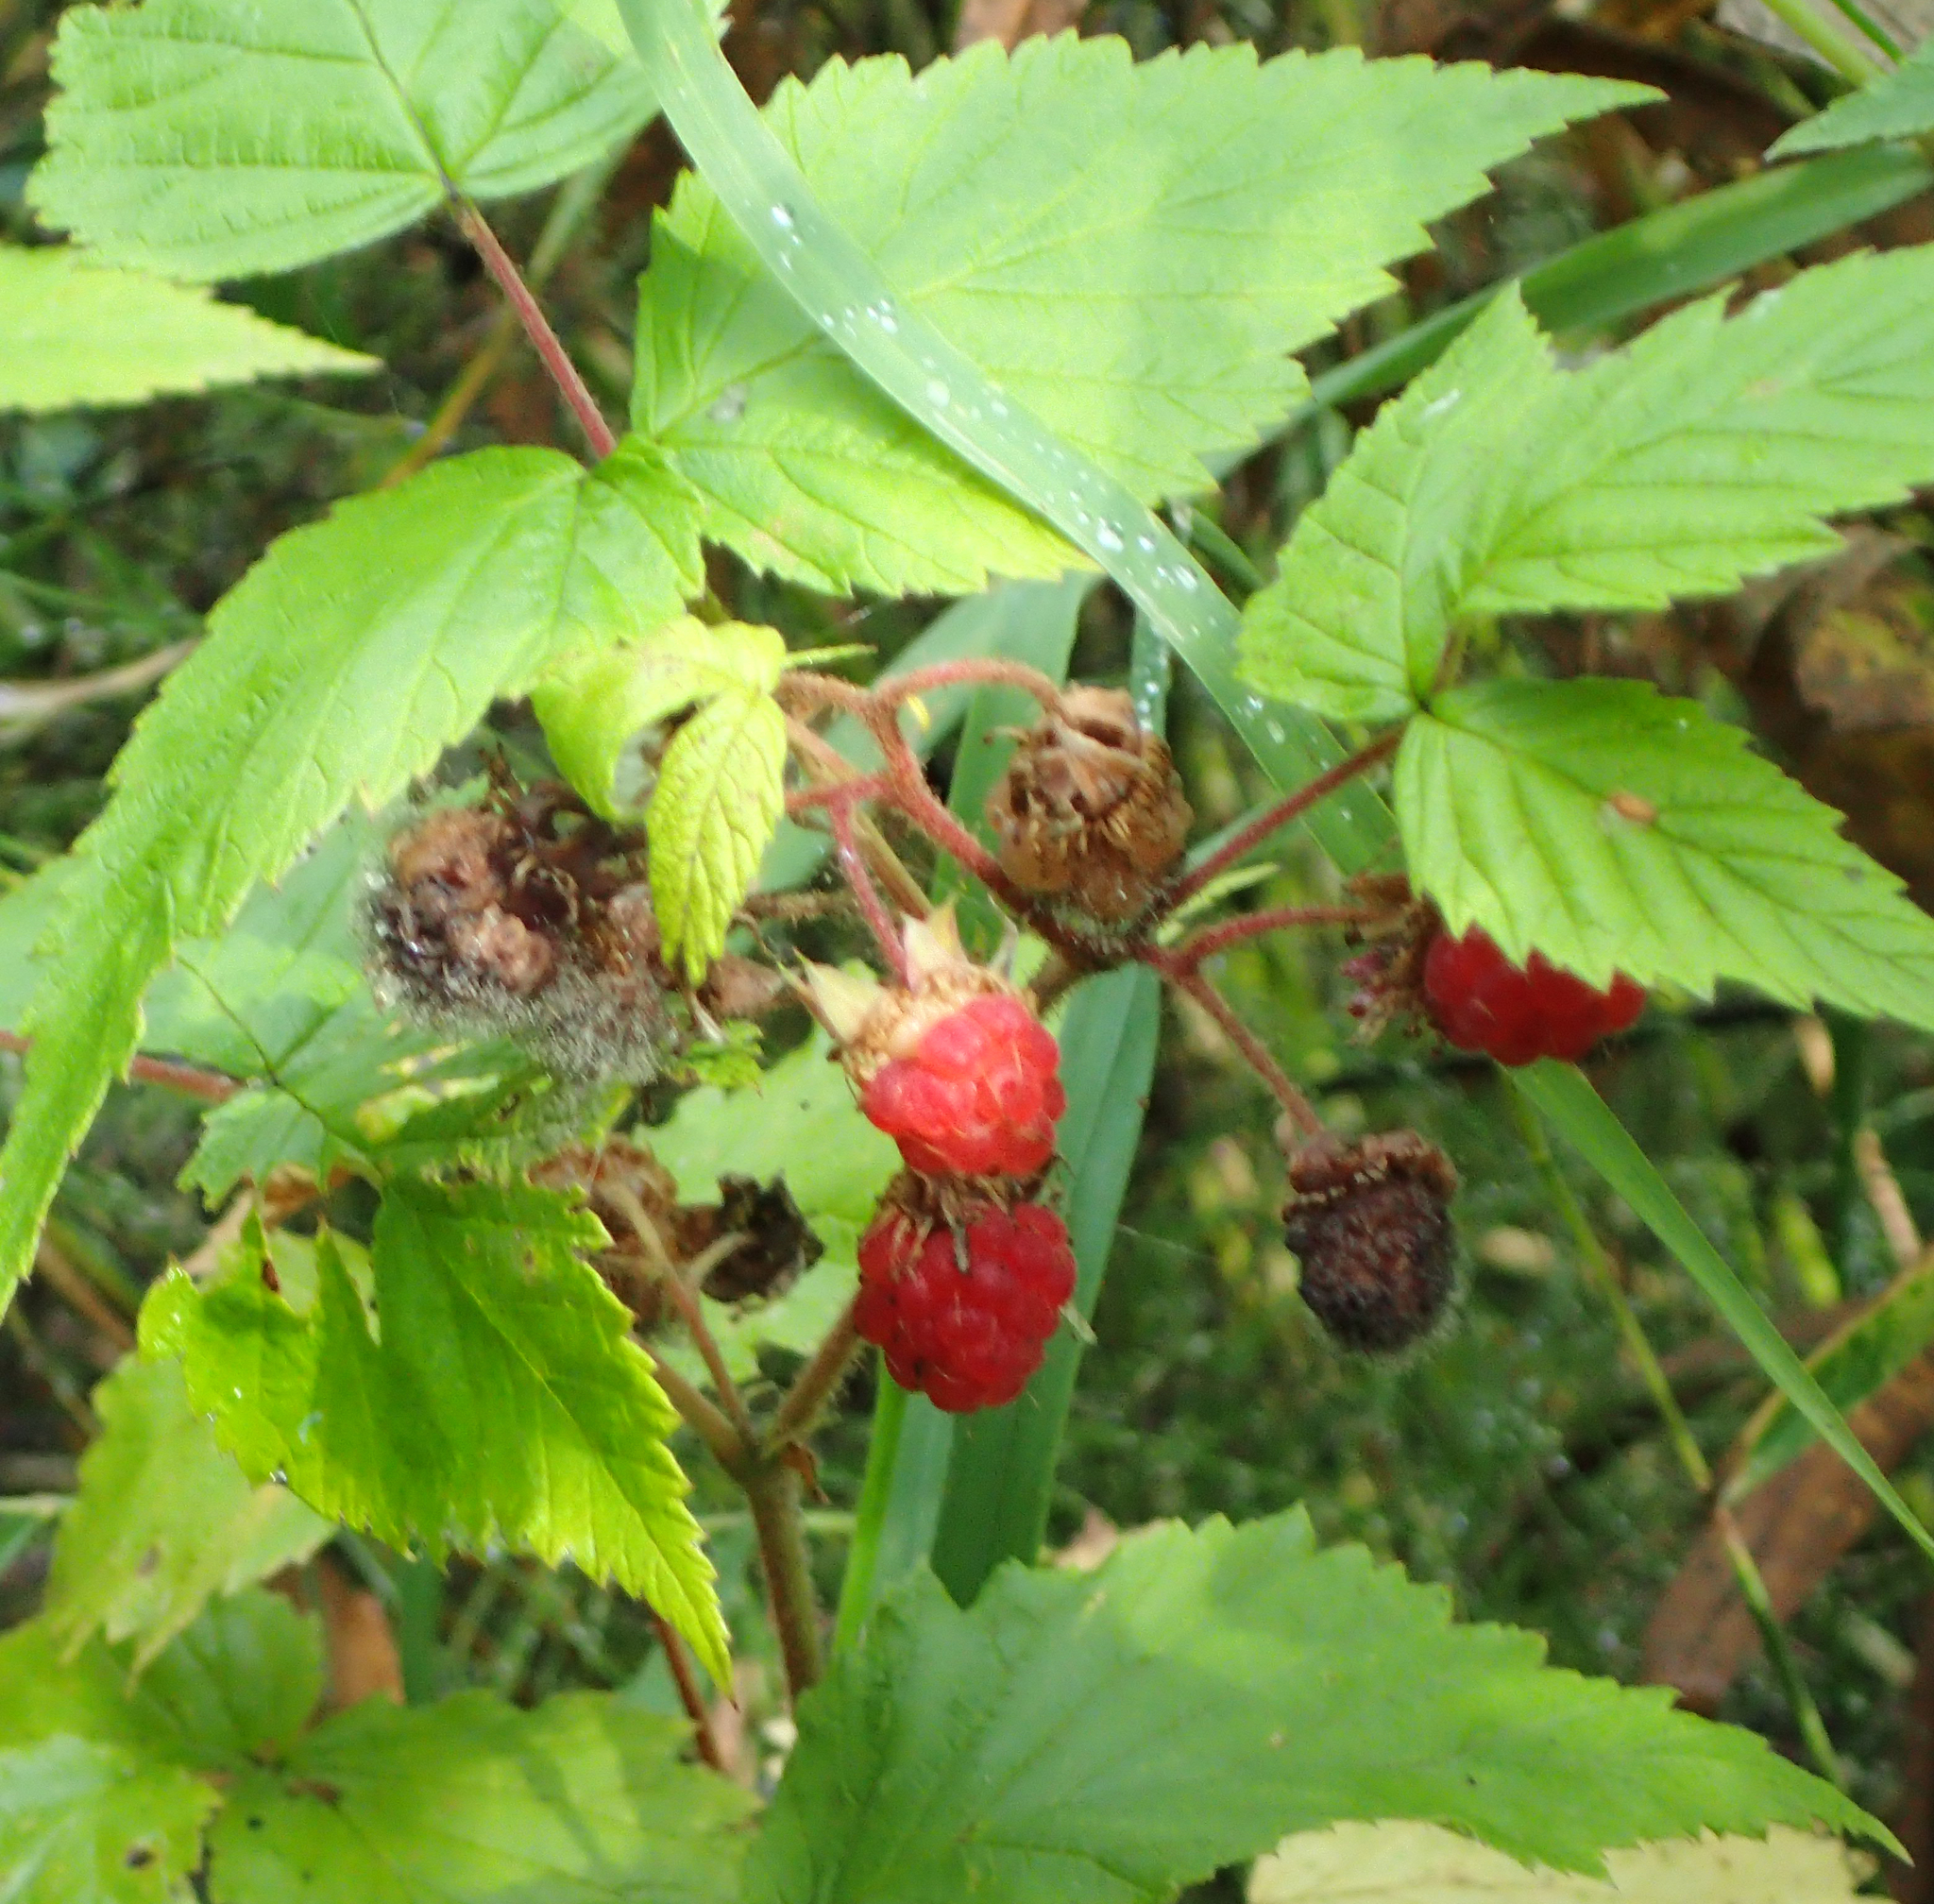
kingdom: Plantae
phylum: Tracheophyta
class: Magnoliopsida
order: Rosales
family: Rosaceae
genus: Rubus
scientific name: Rubus idaeus
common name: Raspberry
